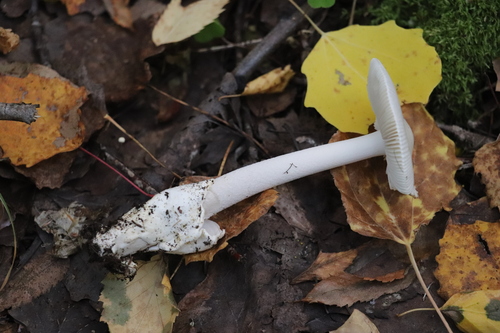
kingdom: Fungi
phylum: Basidiomycota
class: Agaricomycetes
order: Agaricales
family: Amanitaceae
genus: Amanita
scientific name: Amanita vaginata
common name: Grisette
